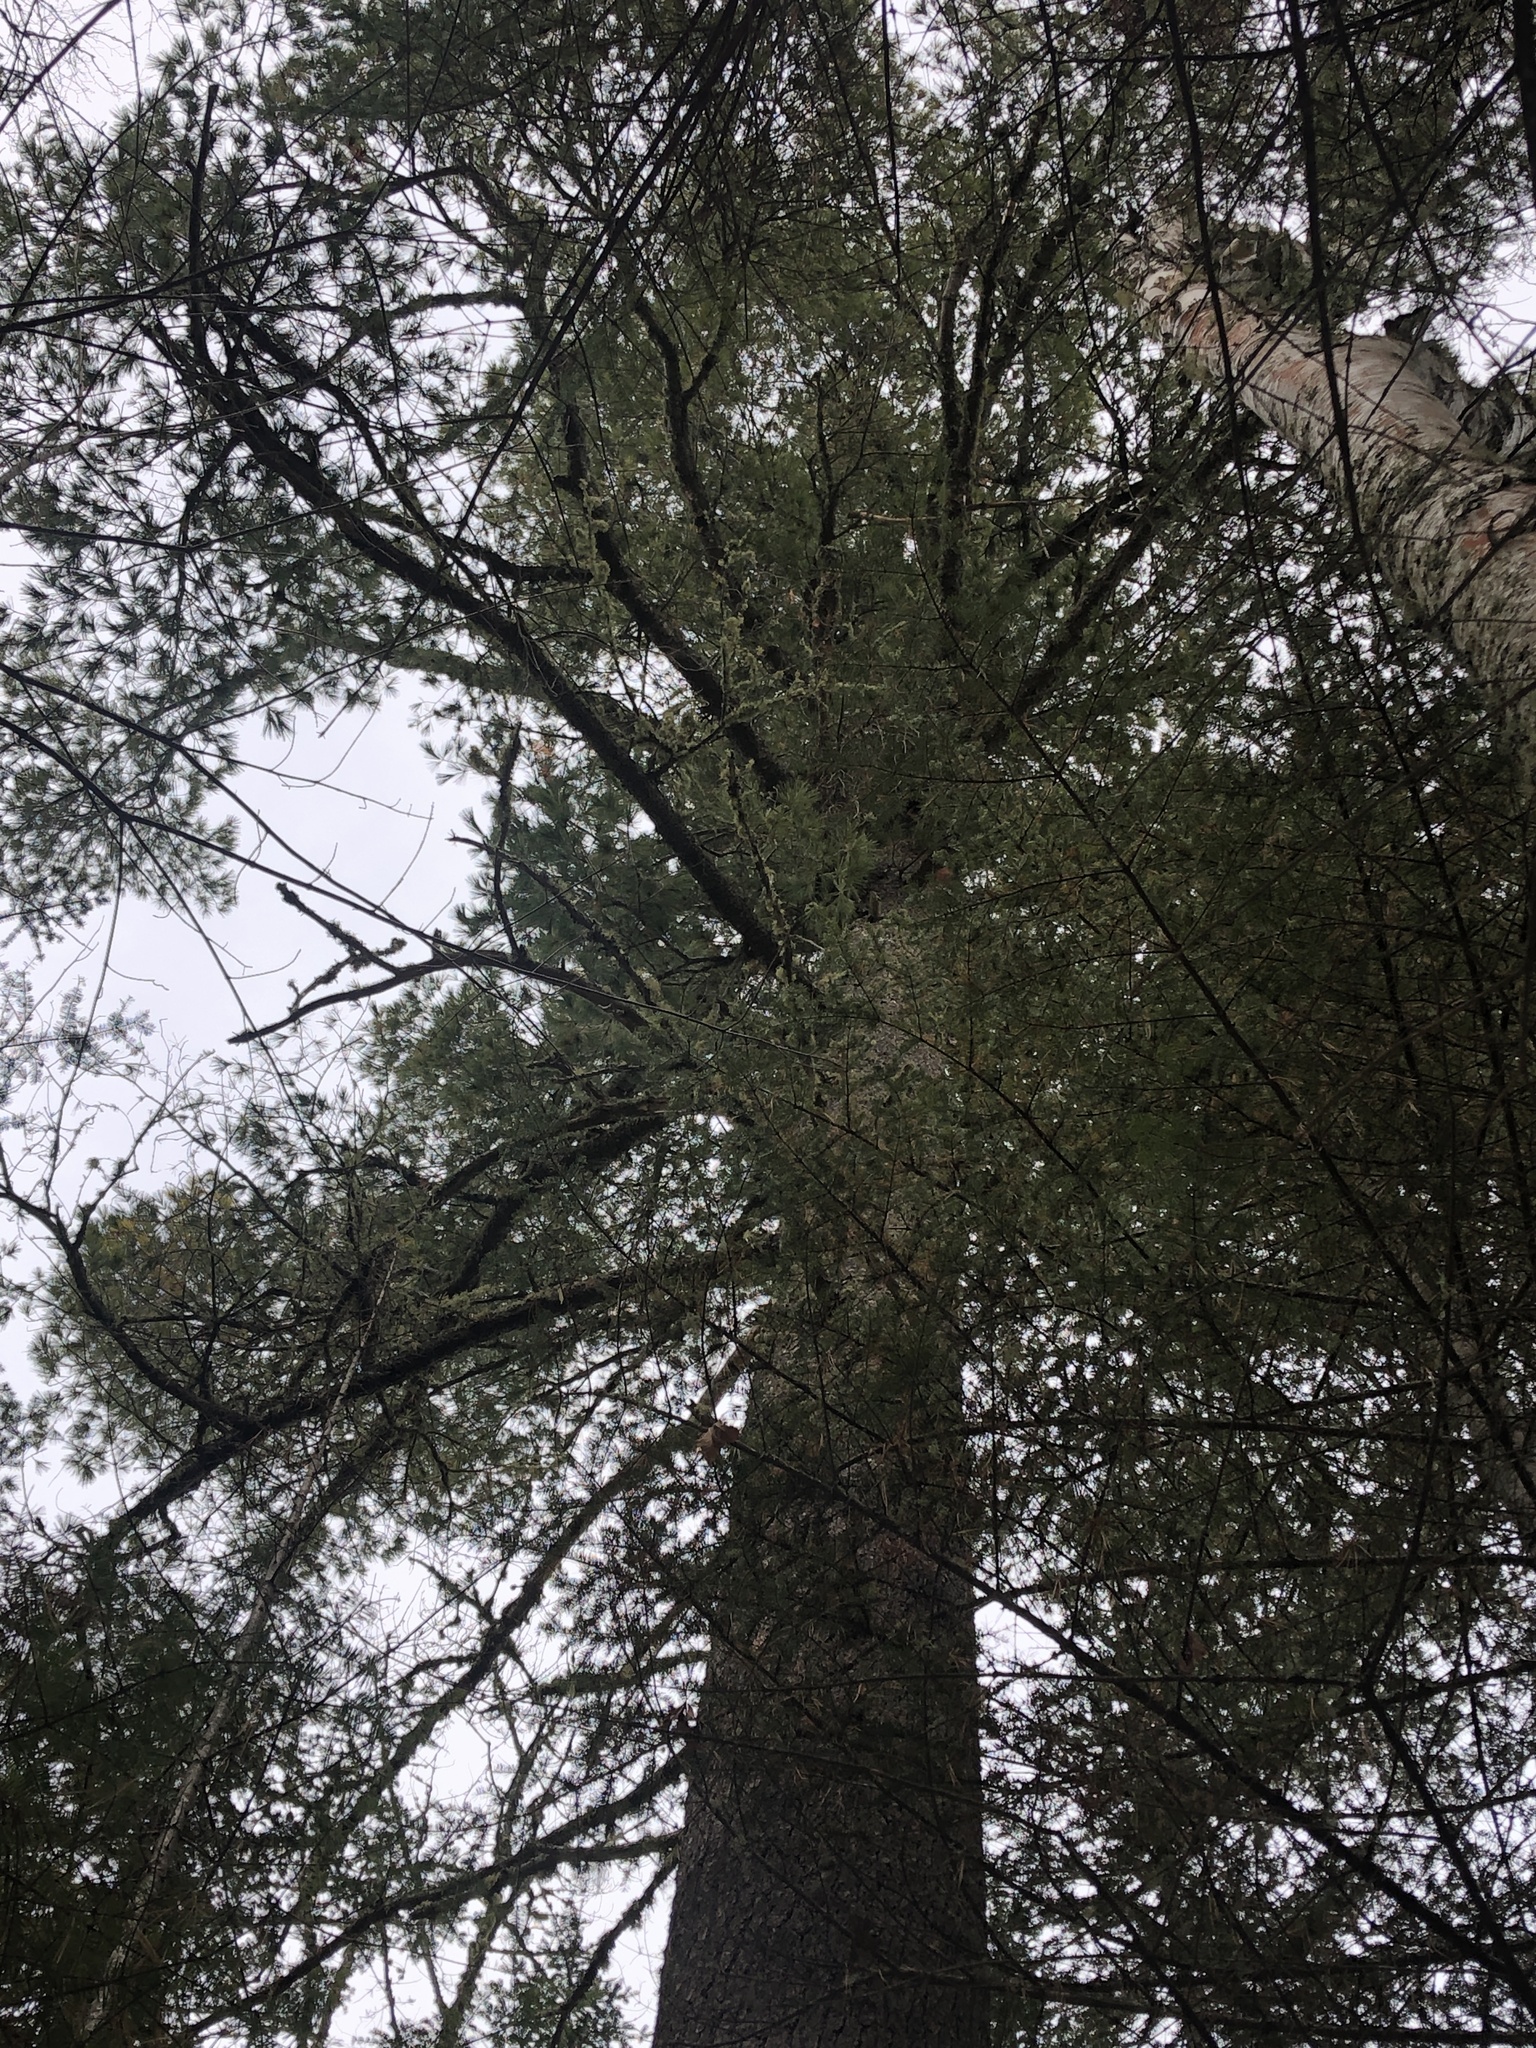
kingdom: Plantae
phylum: Tracheophyta
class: Pinopsida
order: Pinales
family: Pinaceae
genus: Pinus
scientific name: Pinus strobus
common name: Weymouth pine
